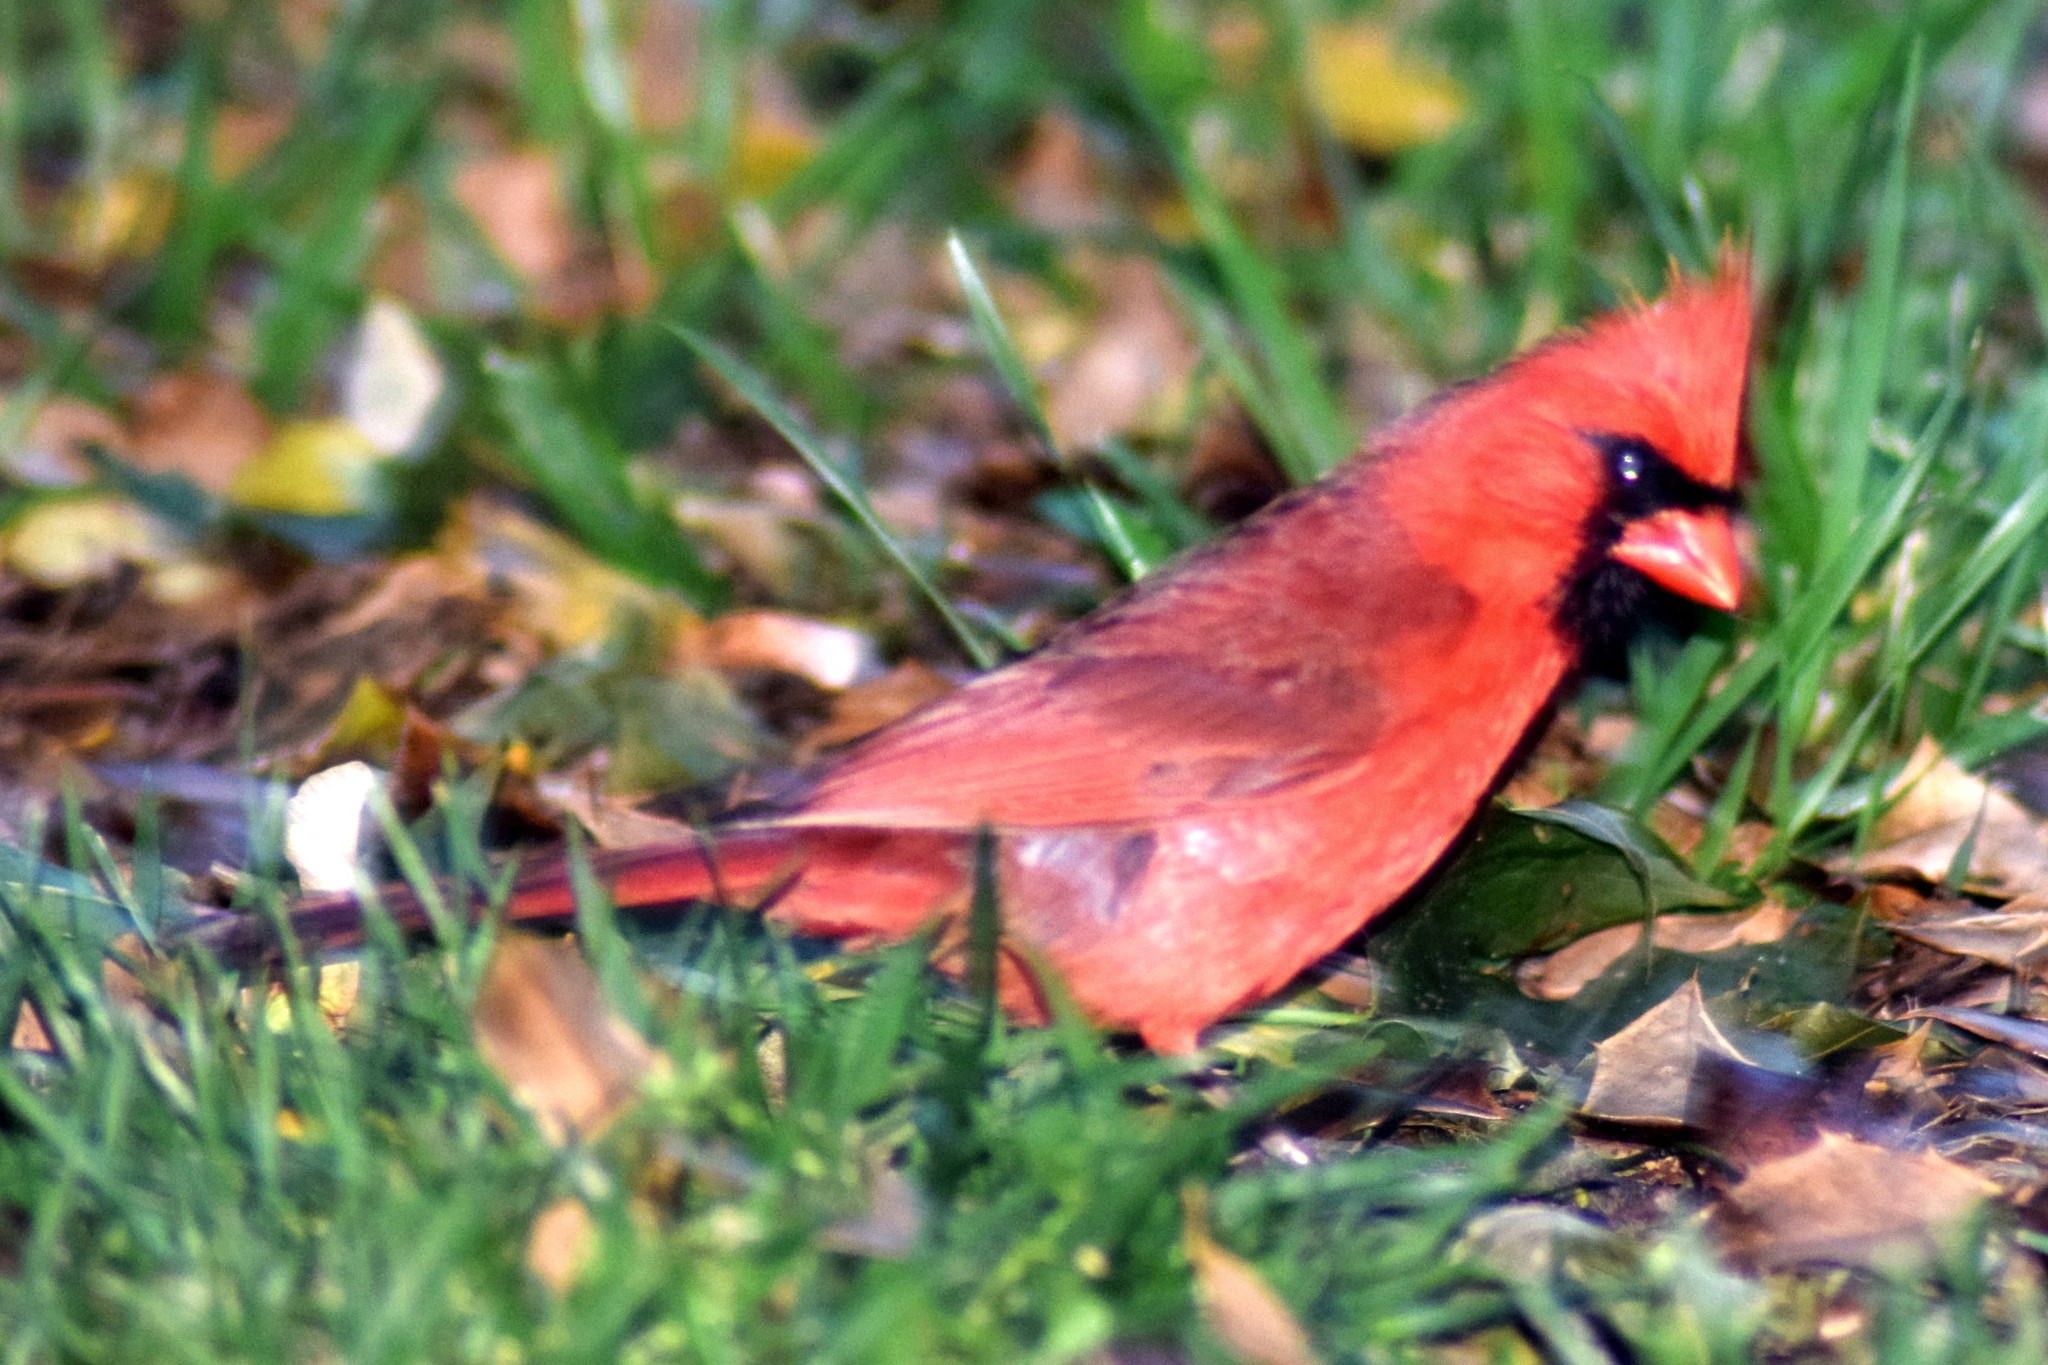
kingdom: Animalia
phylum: Chordata
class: Aves
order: Passeriformes
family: Cardinalidae
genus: Cardinalis
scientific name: Cardinalis cardinalis
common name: Northern cardinal
